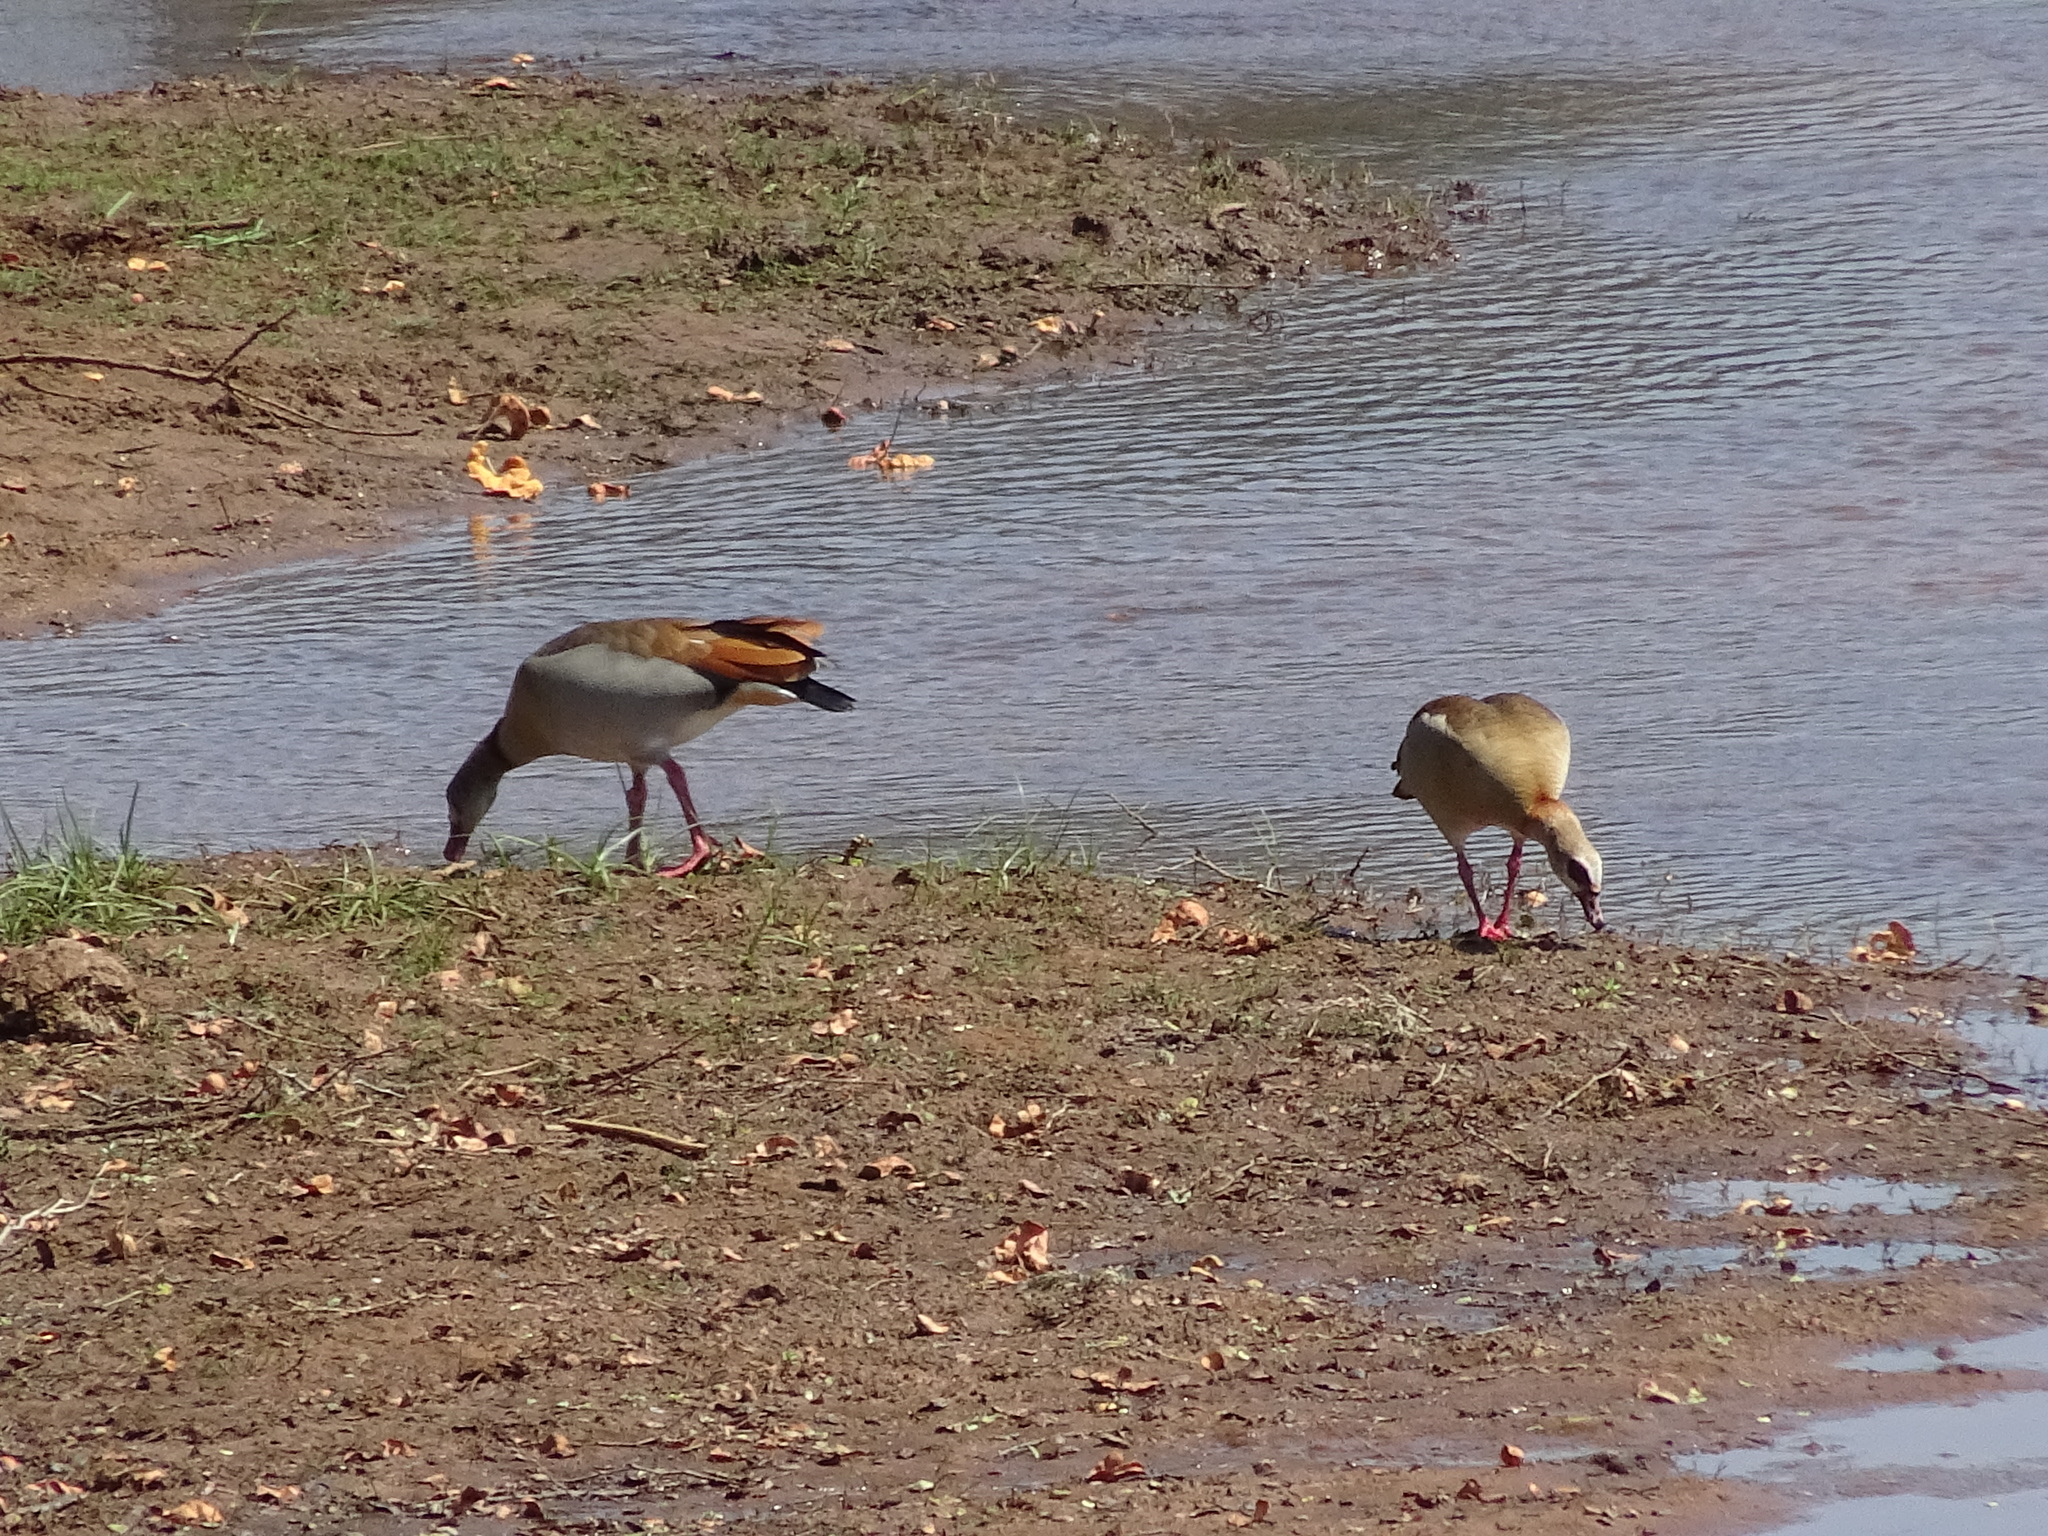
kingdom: Animalia
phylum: Chordata
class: Aves
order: Anseriformes
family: Anatidae
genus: Alopochen
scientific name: Alopochen aegyptiaca
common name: Egyptian goose
